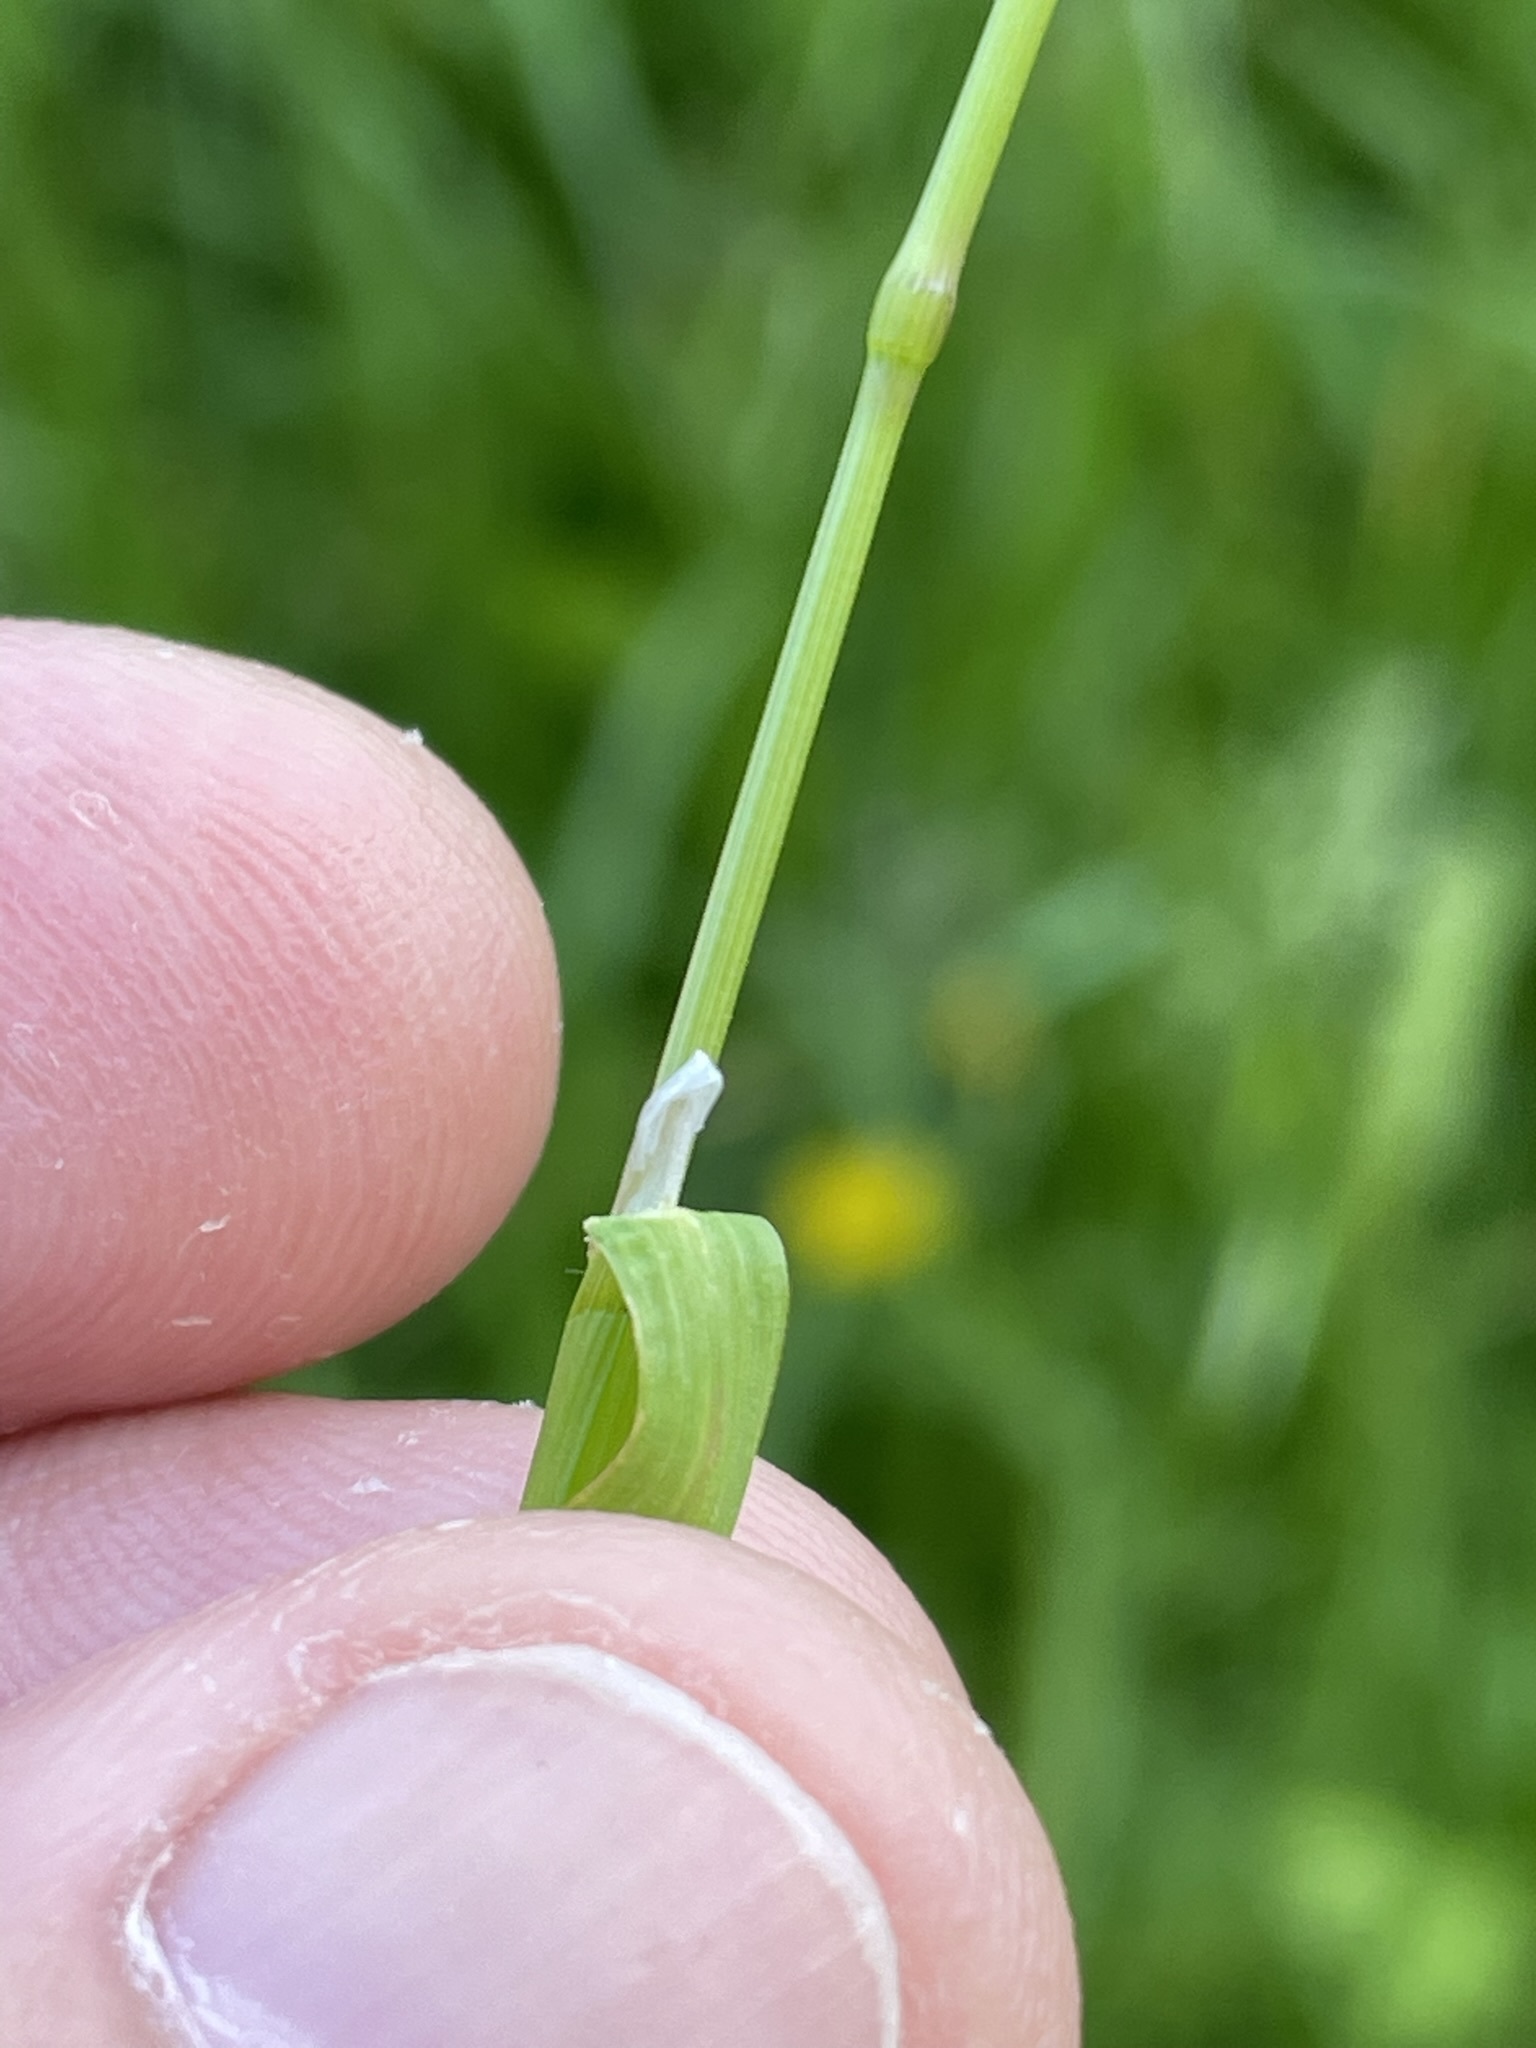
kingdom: Plantae
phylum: Tracheophyta
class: Liliopsida
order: Poales
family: Poaceae
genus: Poa
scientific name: Poa trivialis
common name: Rough bluegrass
